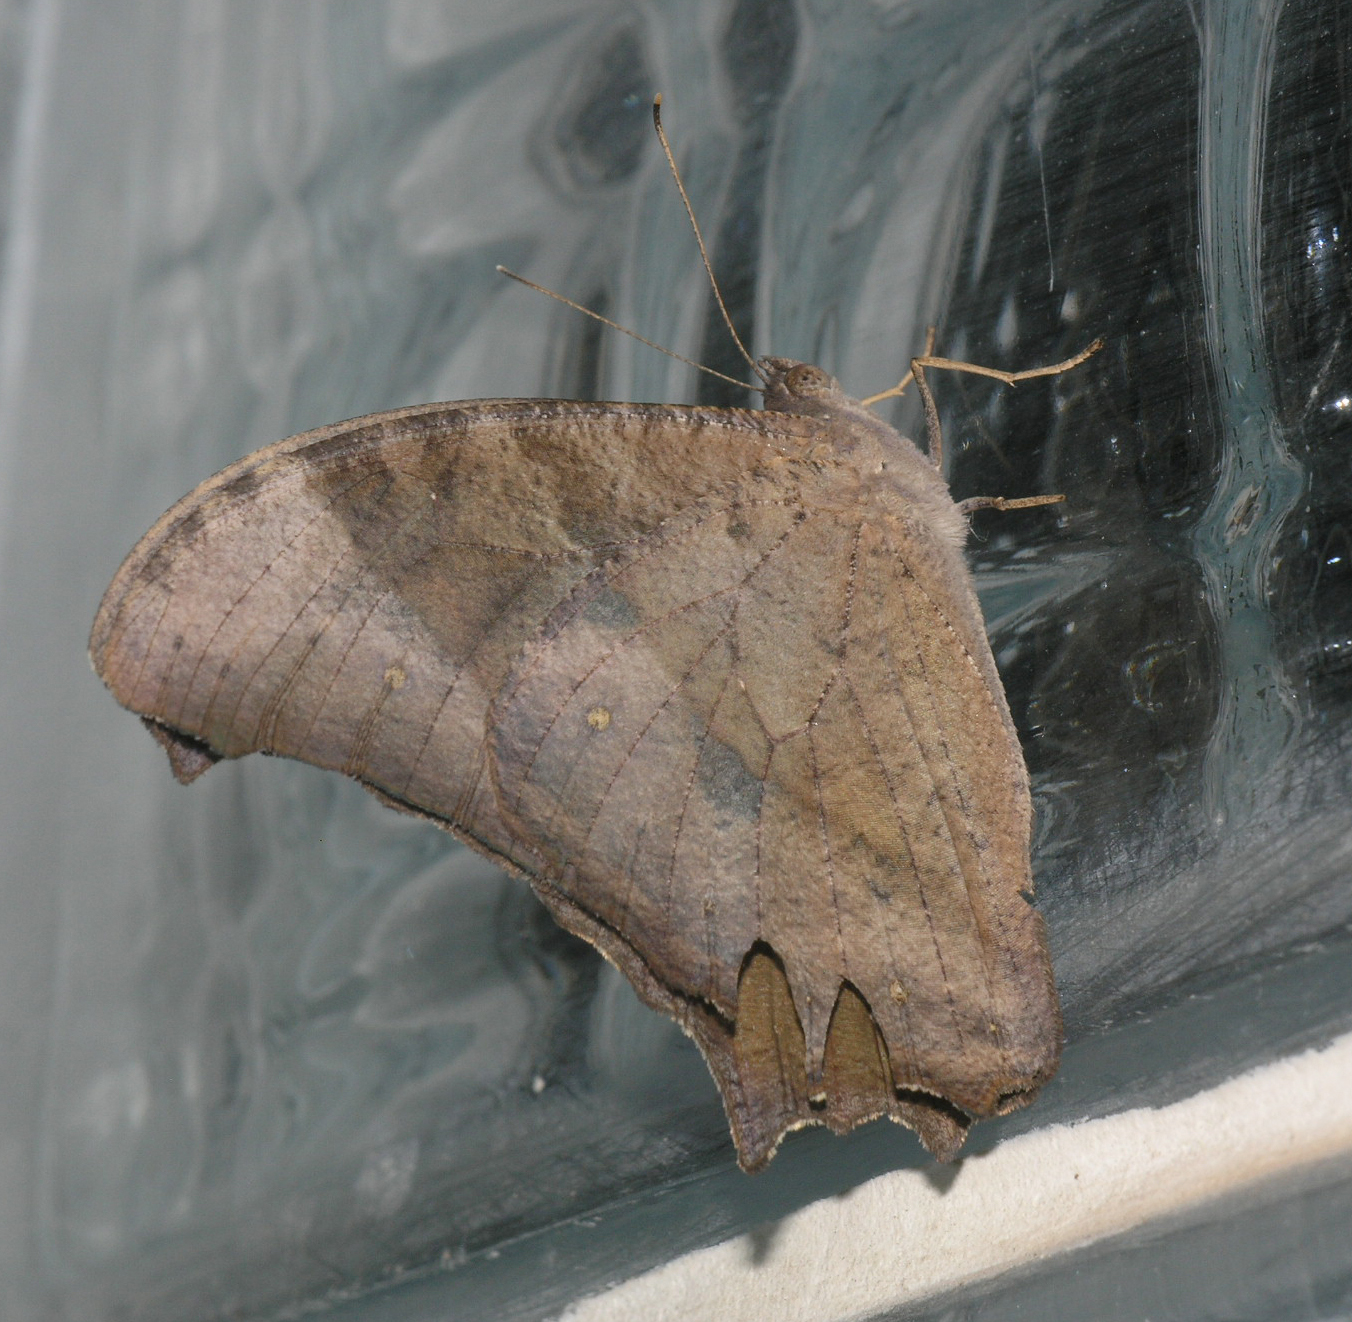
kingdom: Animalia
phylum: Arthropoda
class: Insecta
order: Lepidoptera
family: Nymphalidae
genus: Melanitis
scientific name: Melanitis leda
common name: Twilight brown
